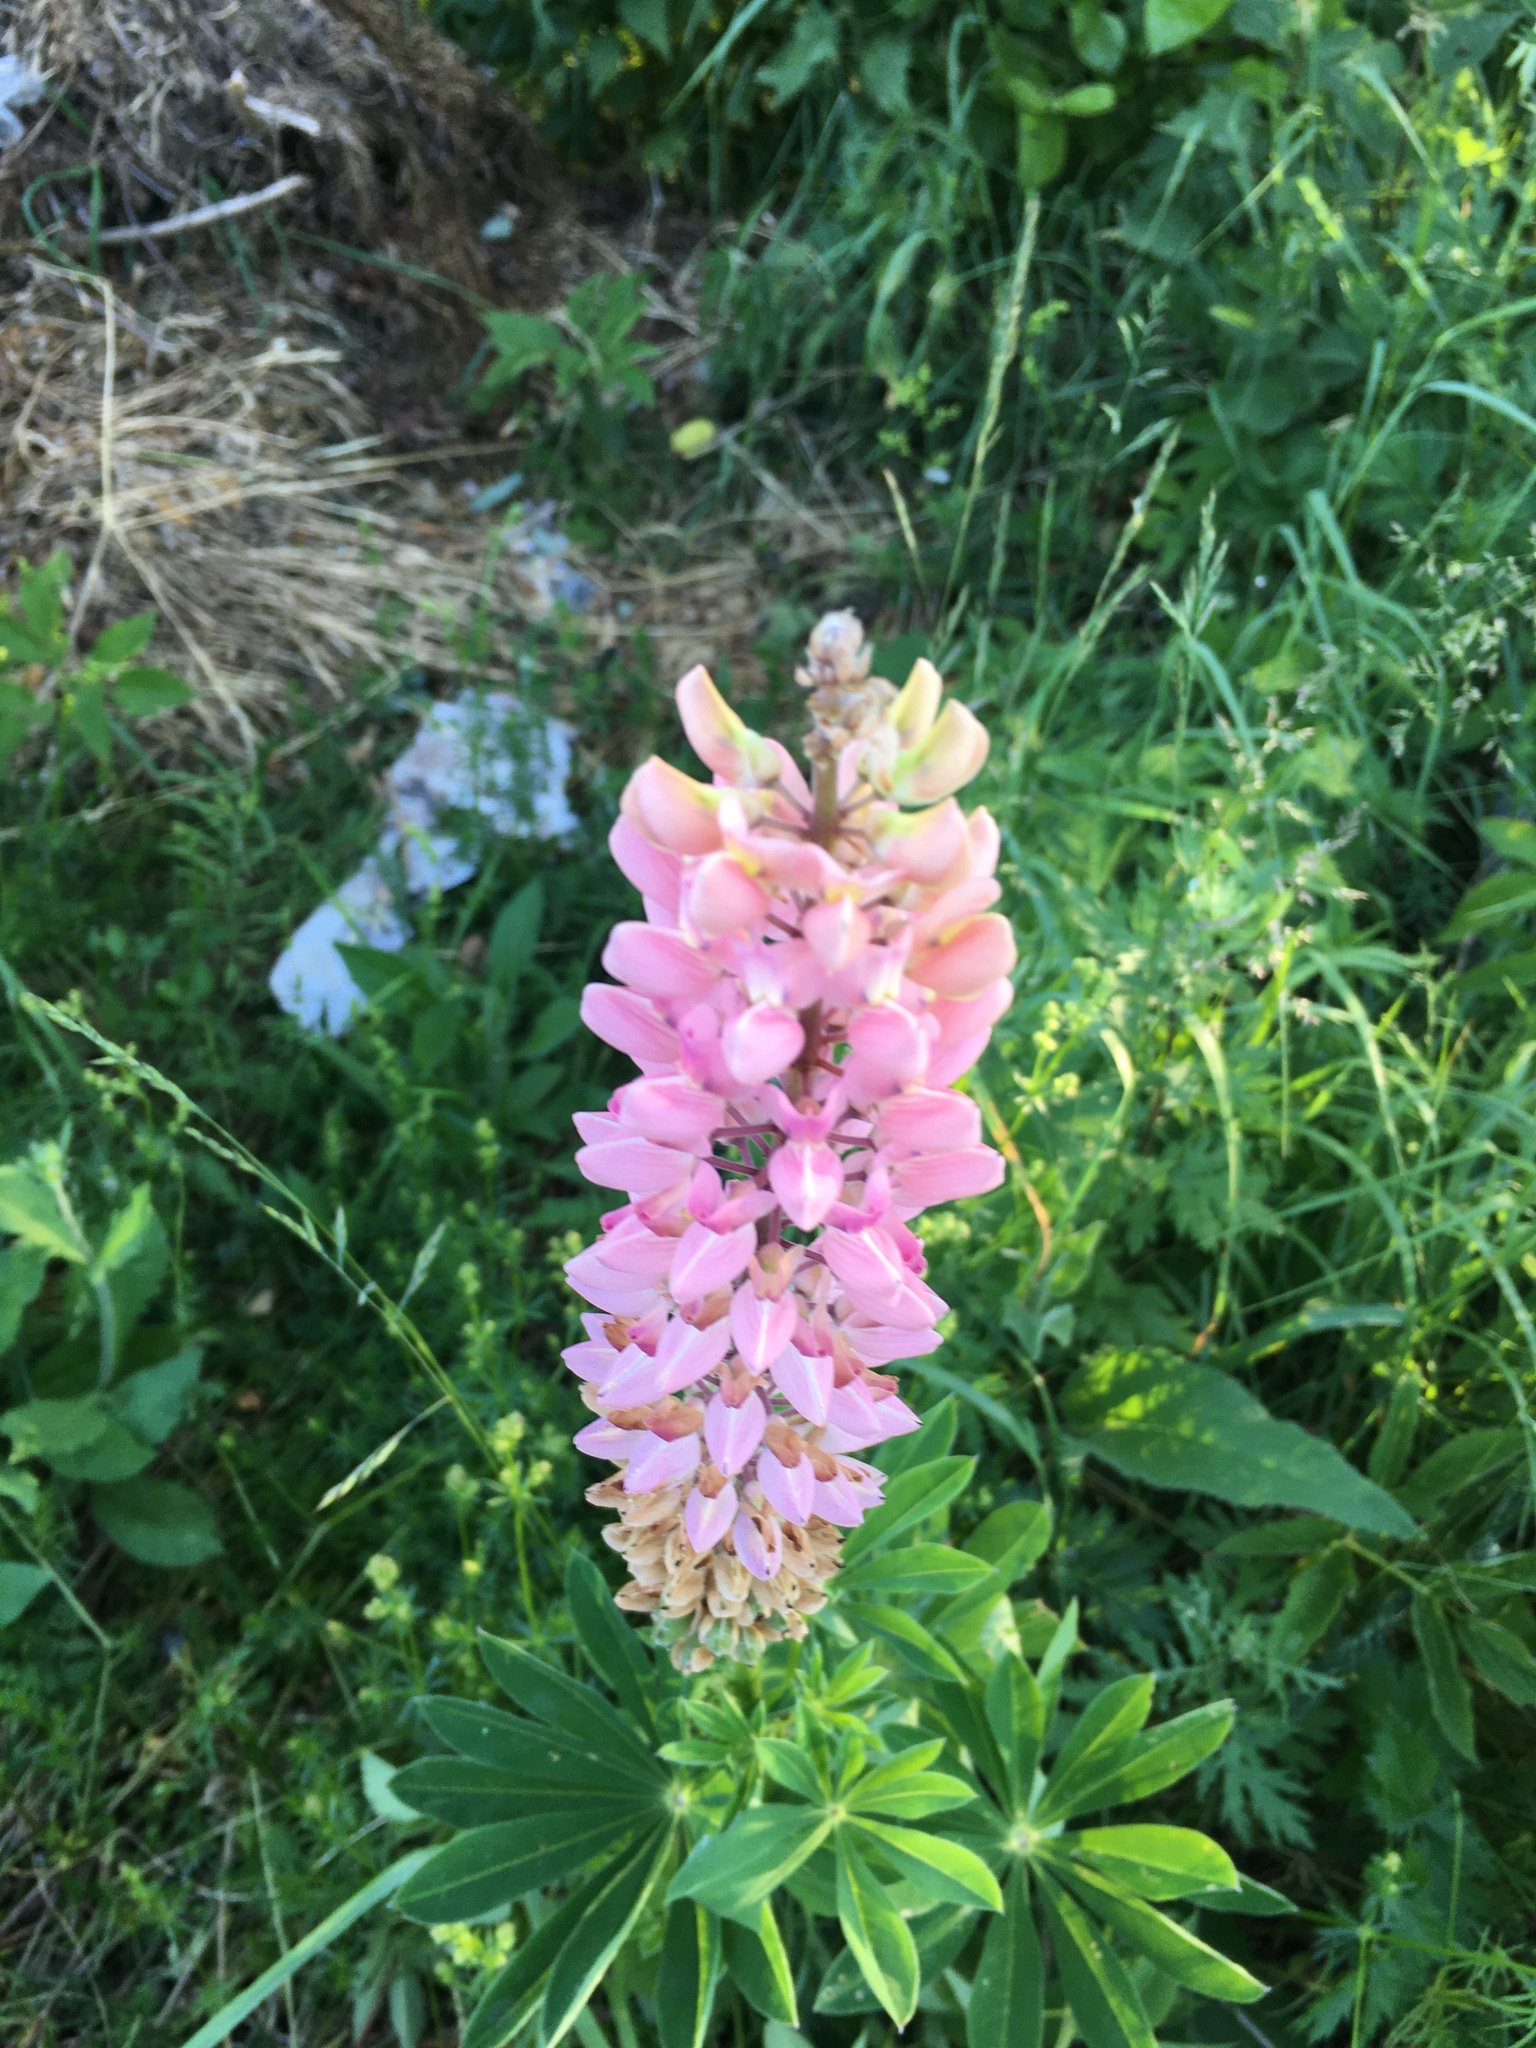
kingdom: Plantae
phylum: Tracheophyta
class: Magnoliopsida
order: Fabales
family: Fabaceae
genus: Lupinus
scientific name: Lupinus polyphyllus
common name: Garden lupin
